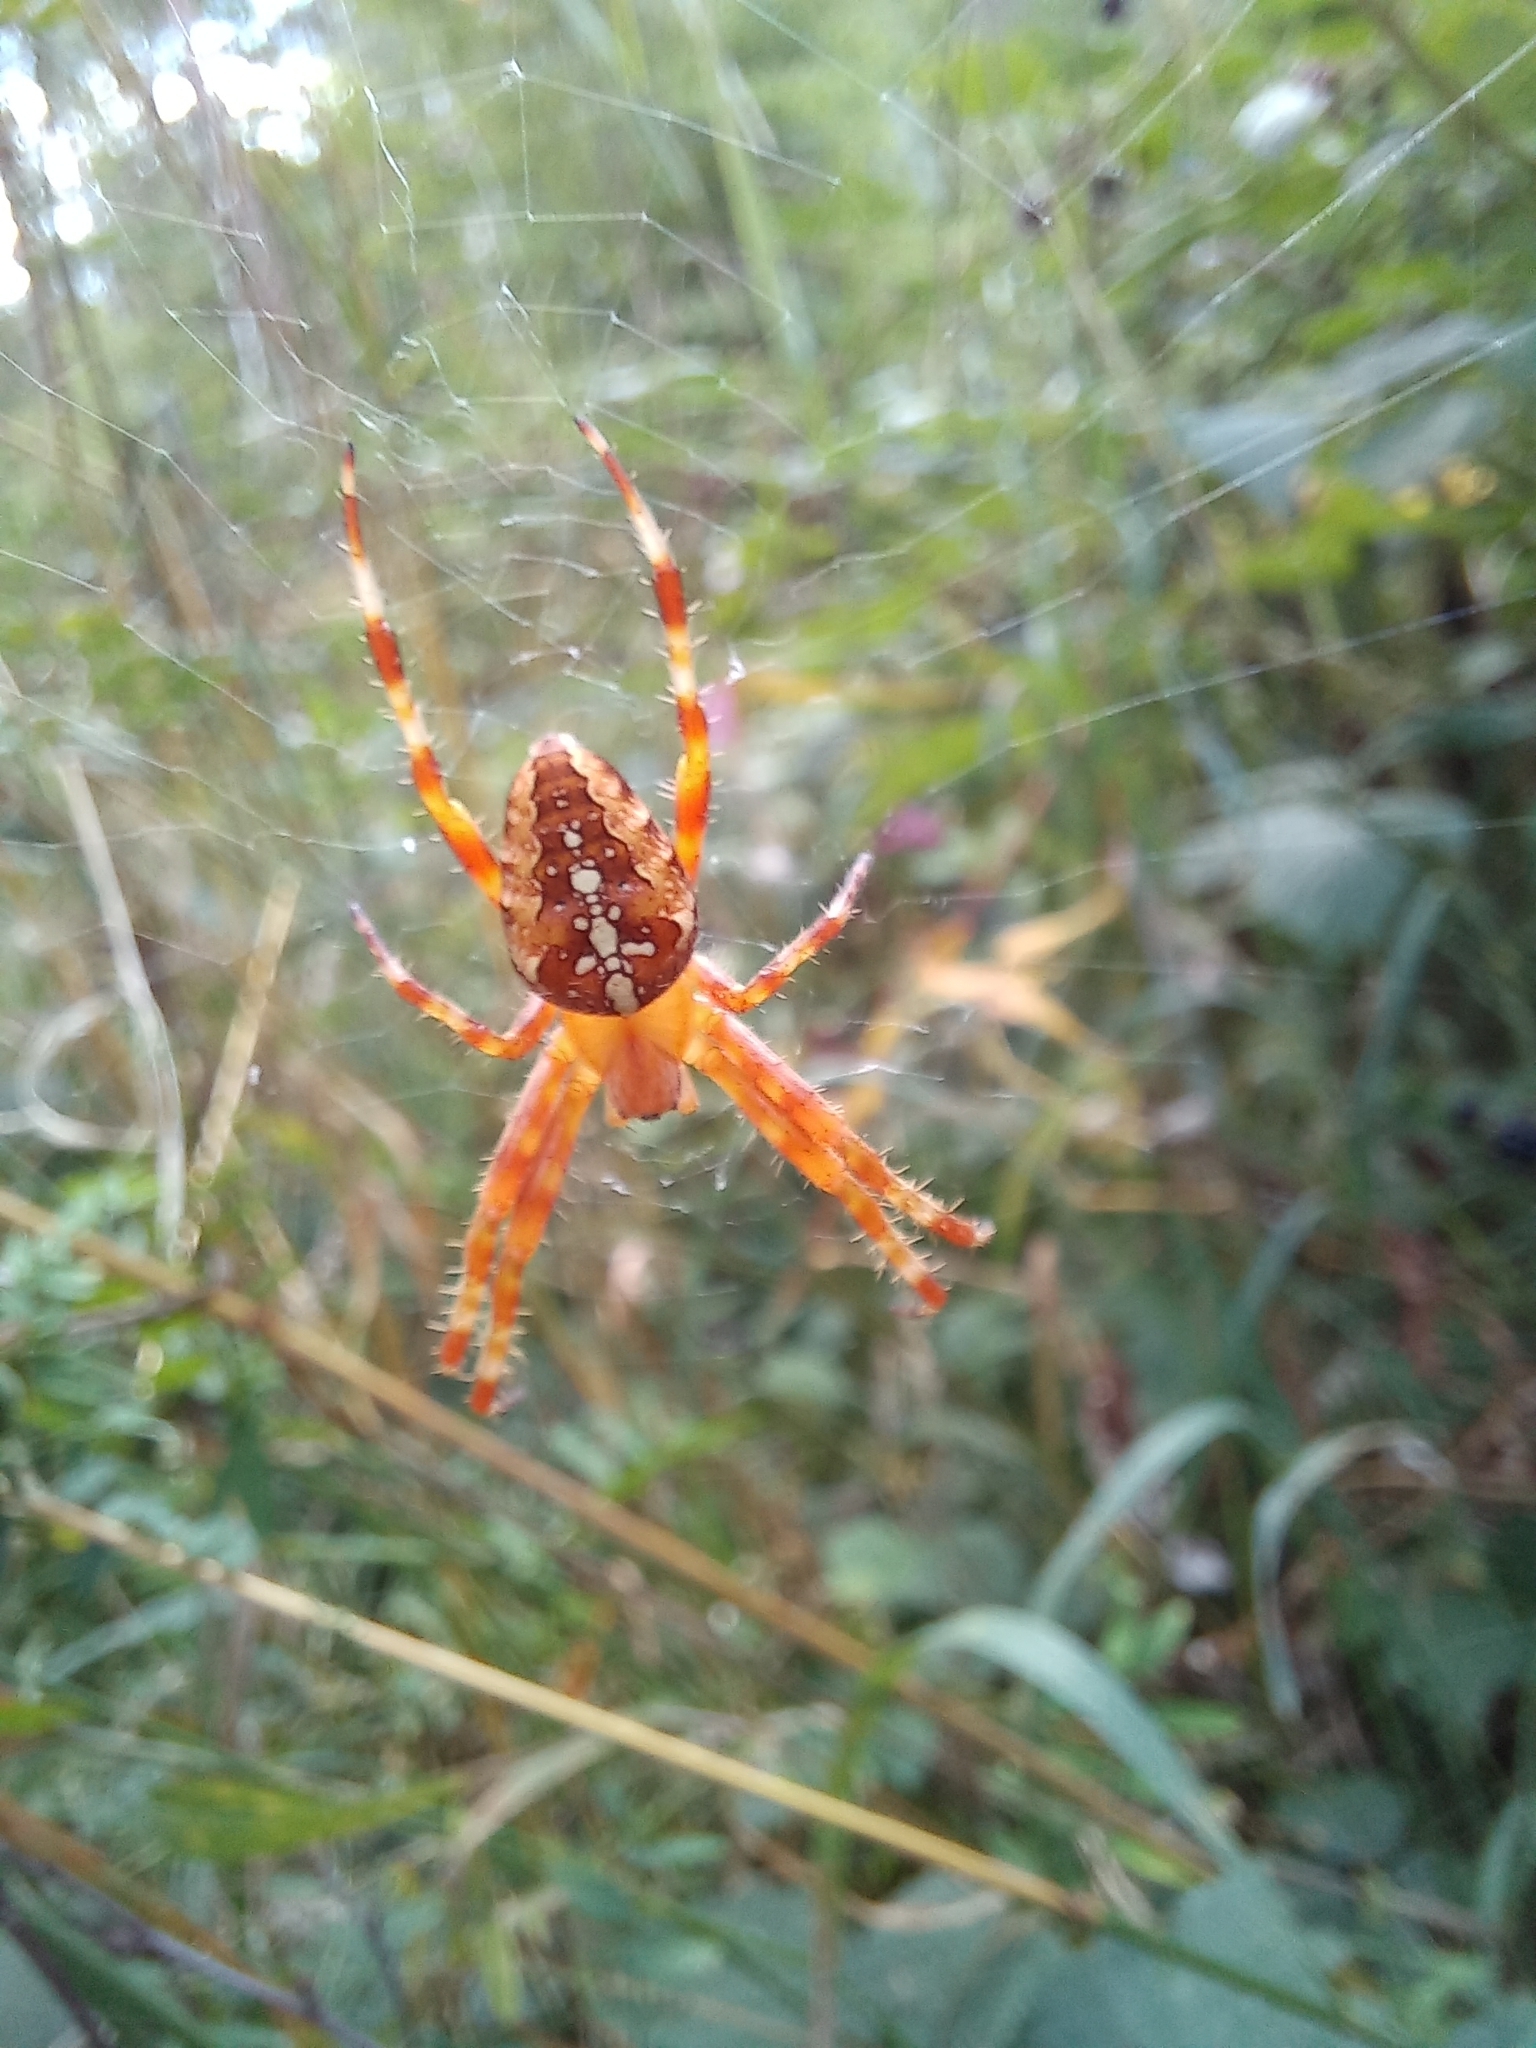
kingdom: Animalia
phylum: Arthropoda
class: Arachnida
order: Araneae
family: Araneidae
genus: Araneus
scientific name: Araneus diadematus
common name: Cross orbweaver
